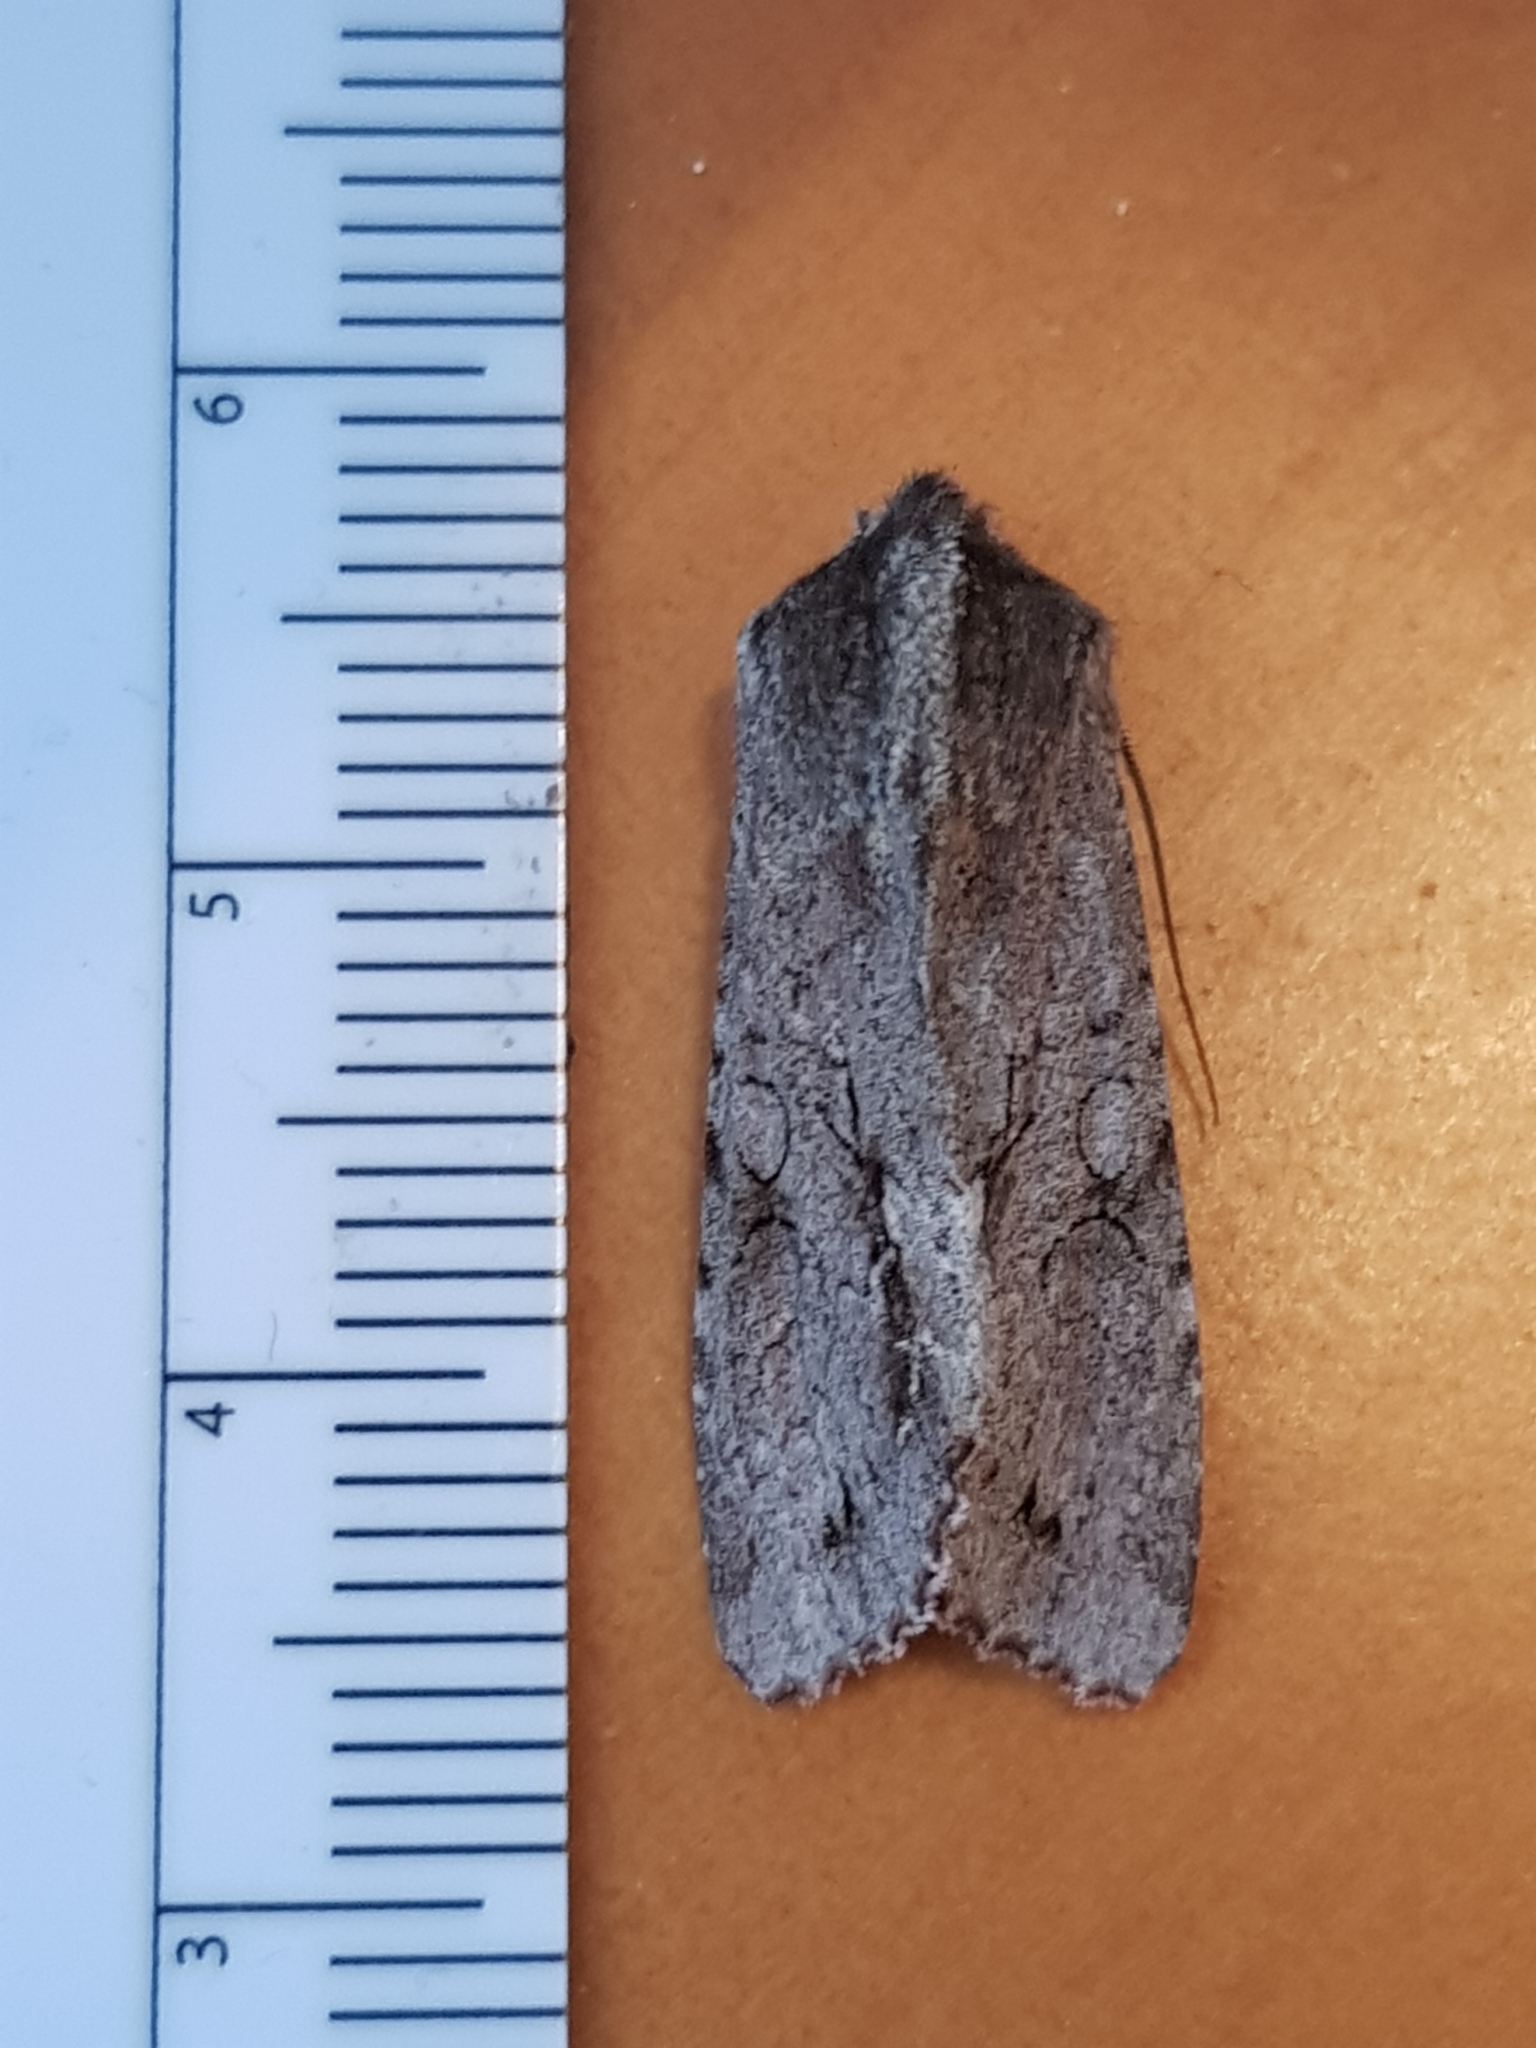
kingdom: Animalia
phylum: Arthropoda
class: Insecta
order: Lepidoptera
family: Noctuidae
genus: Ichneutica
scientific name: Ichneutica
